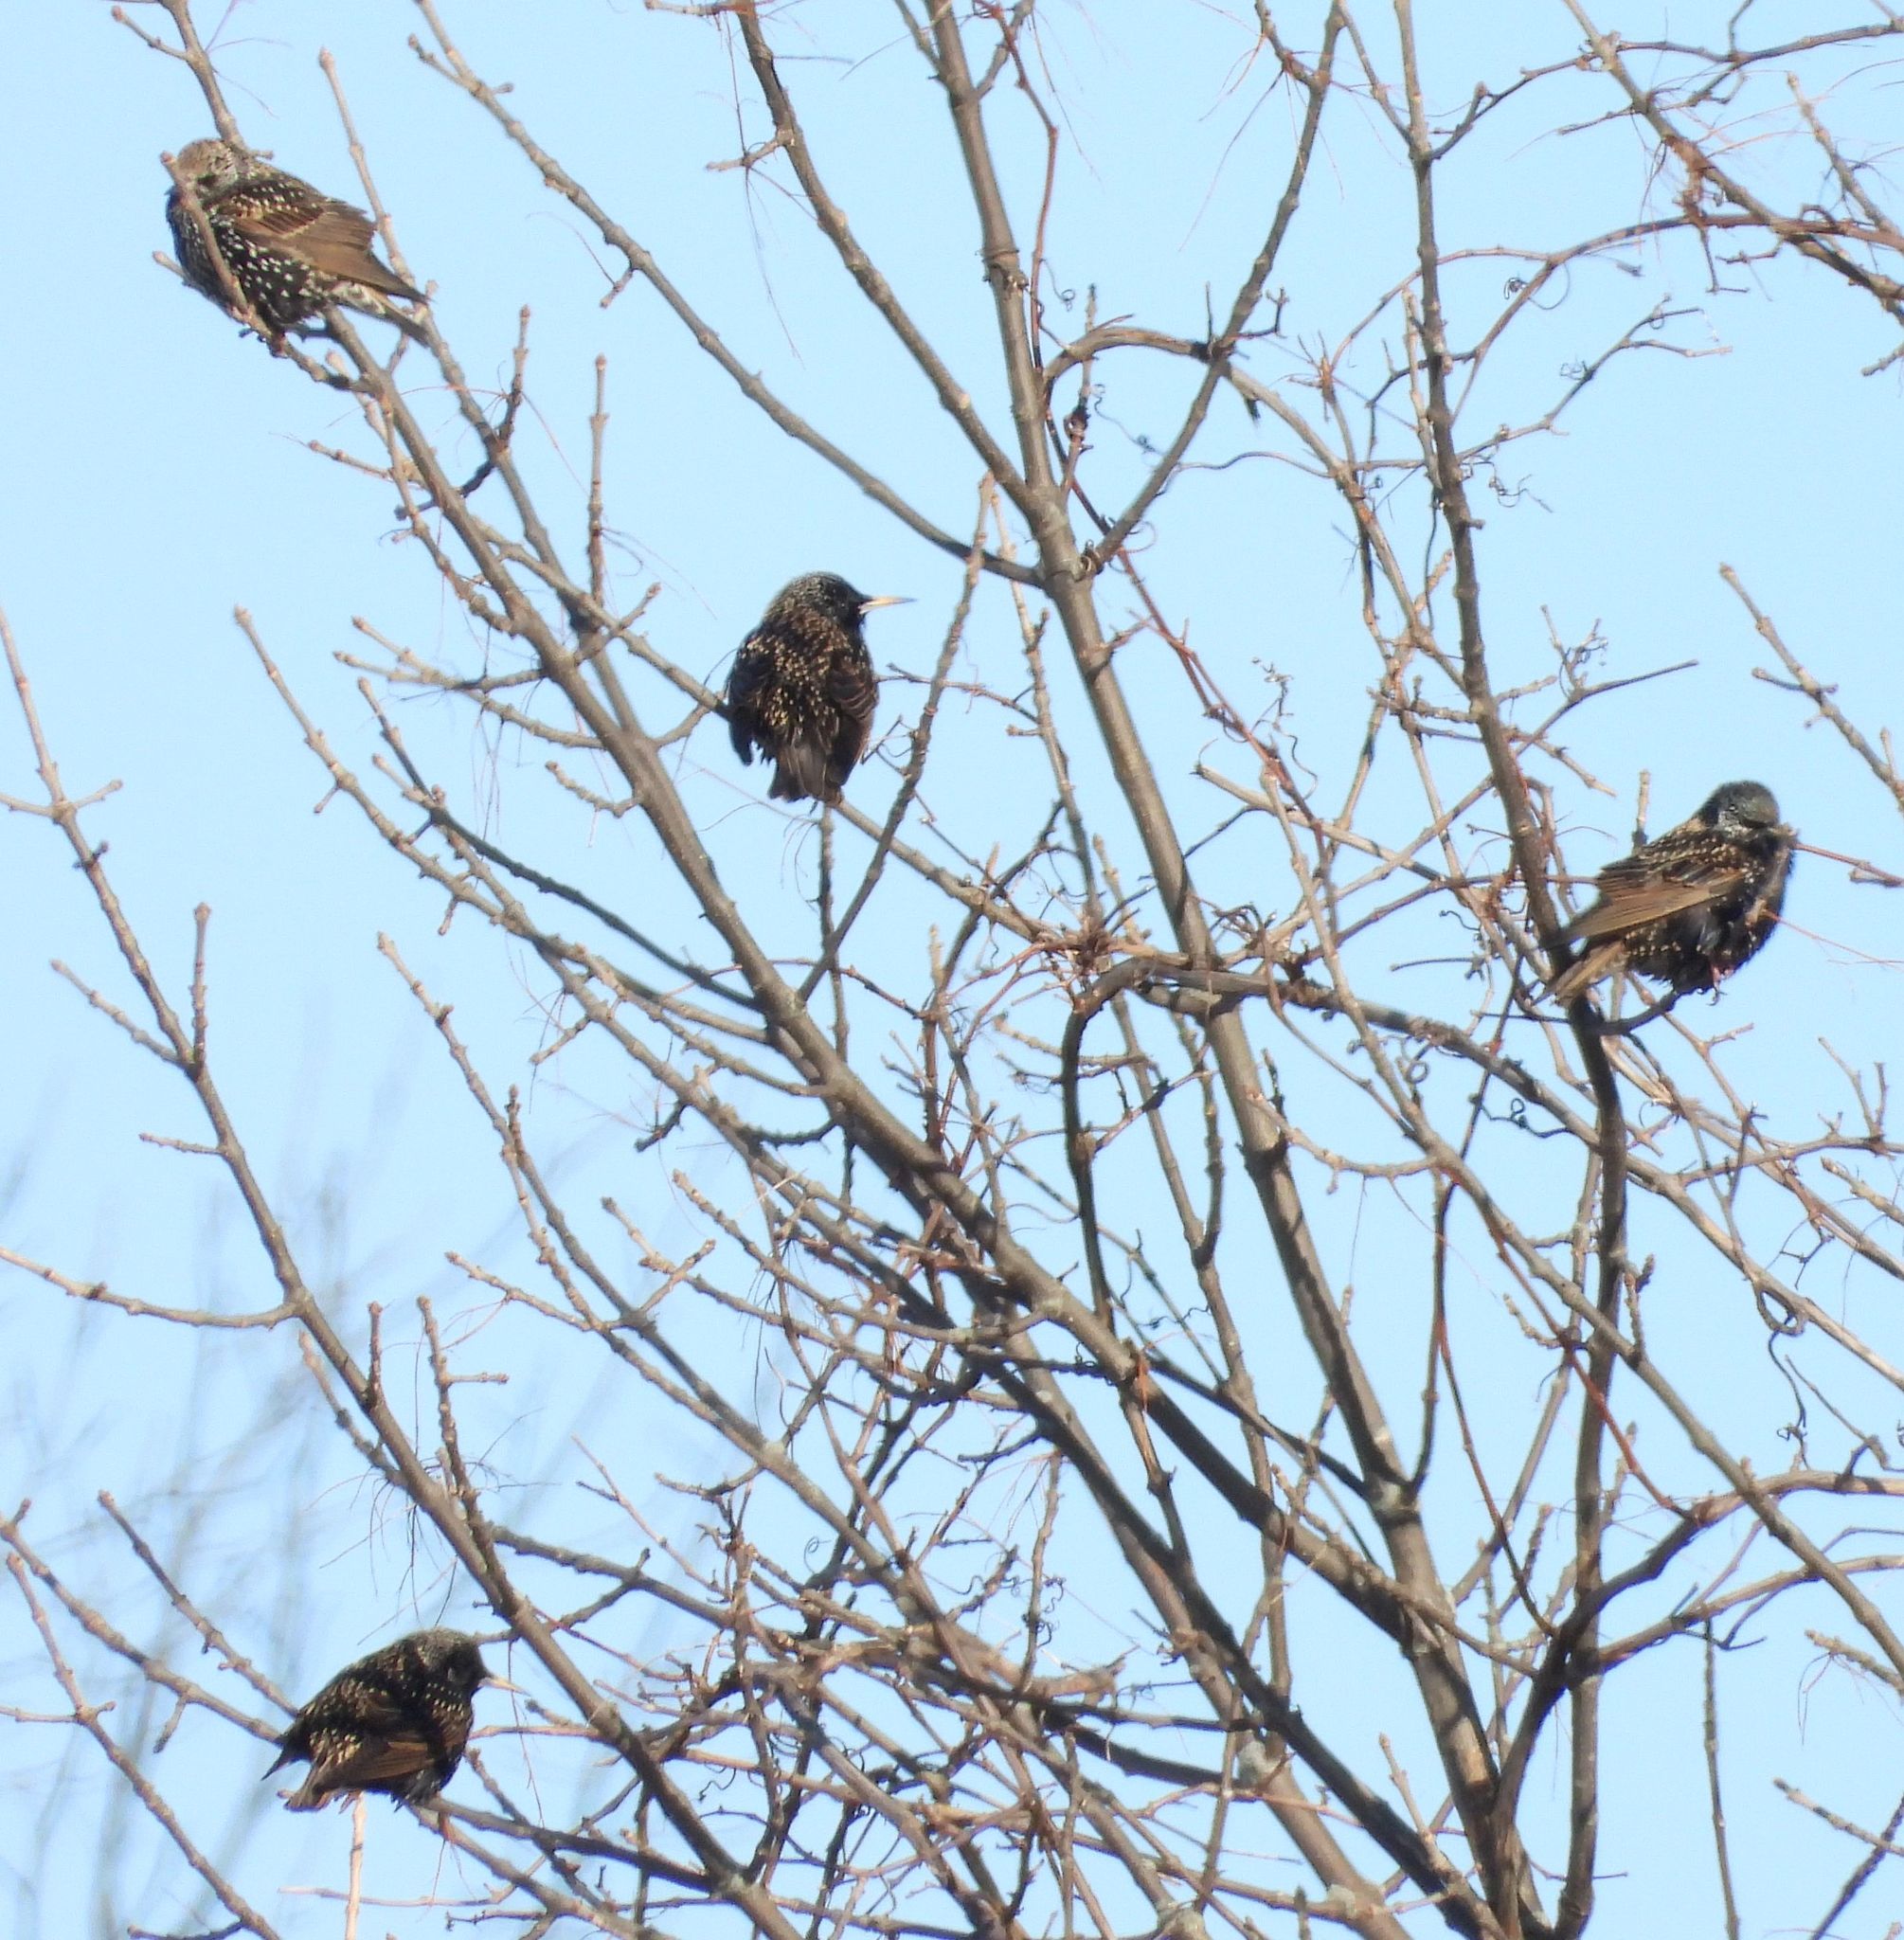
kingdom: Animalia
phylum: Chordata
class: Aves
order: Passeriformes
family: Sturnidae
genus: Sturnus
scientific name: Sturnus vulgaris
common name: Common starling
